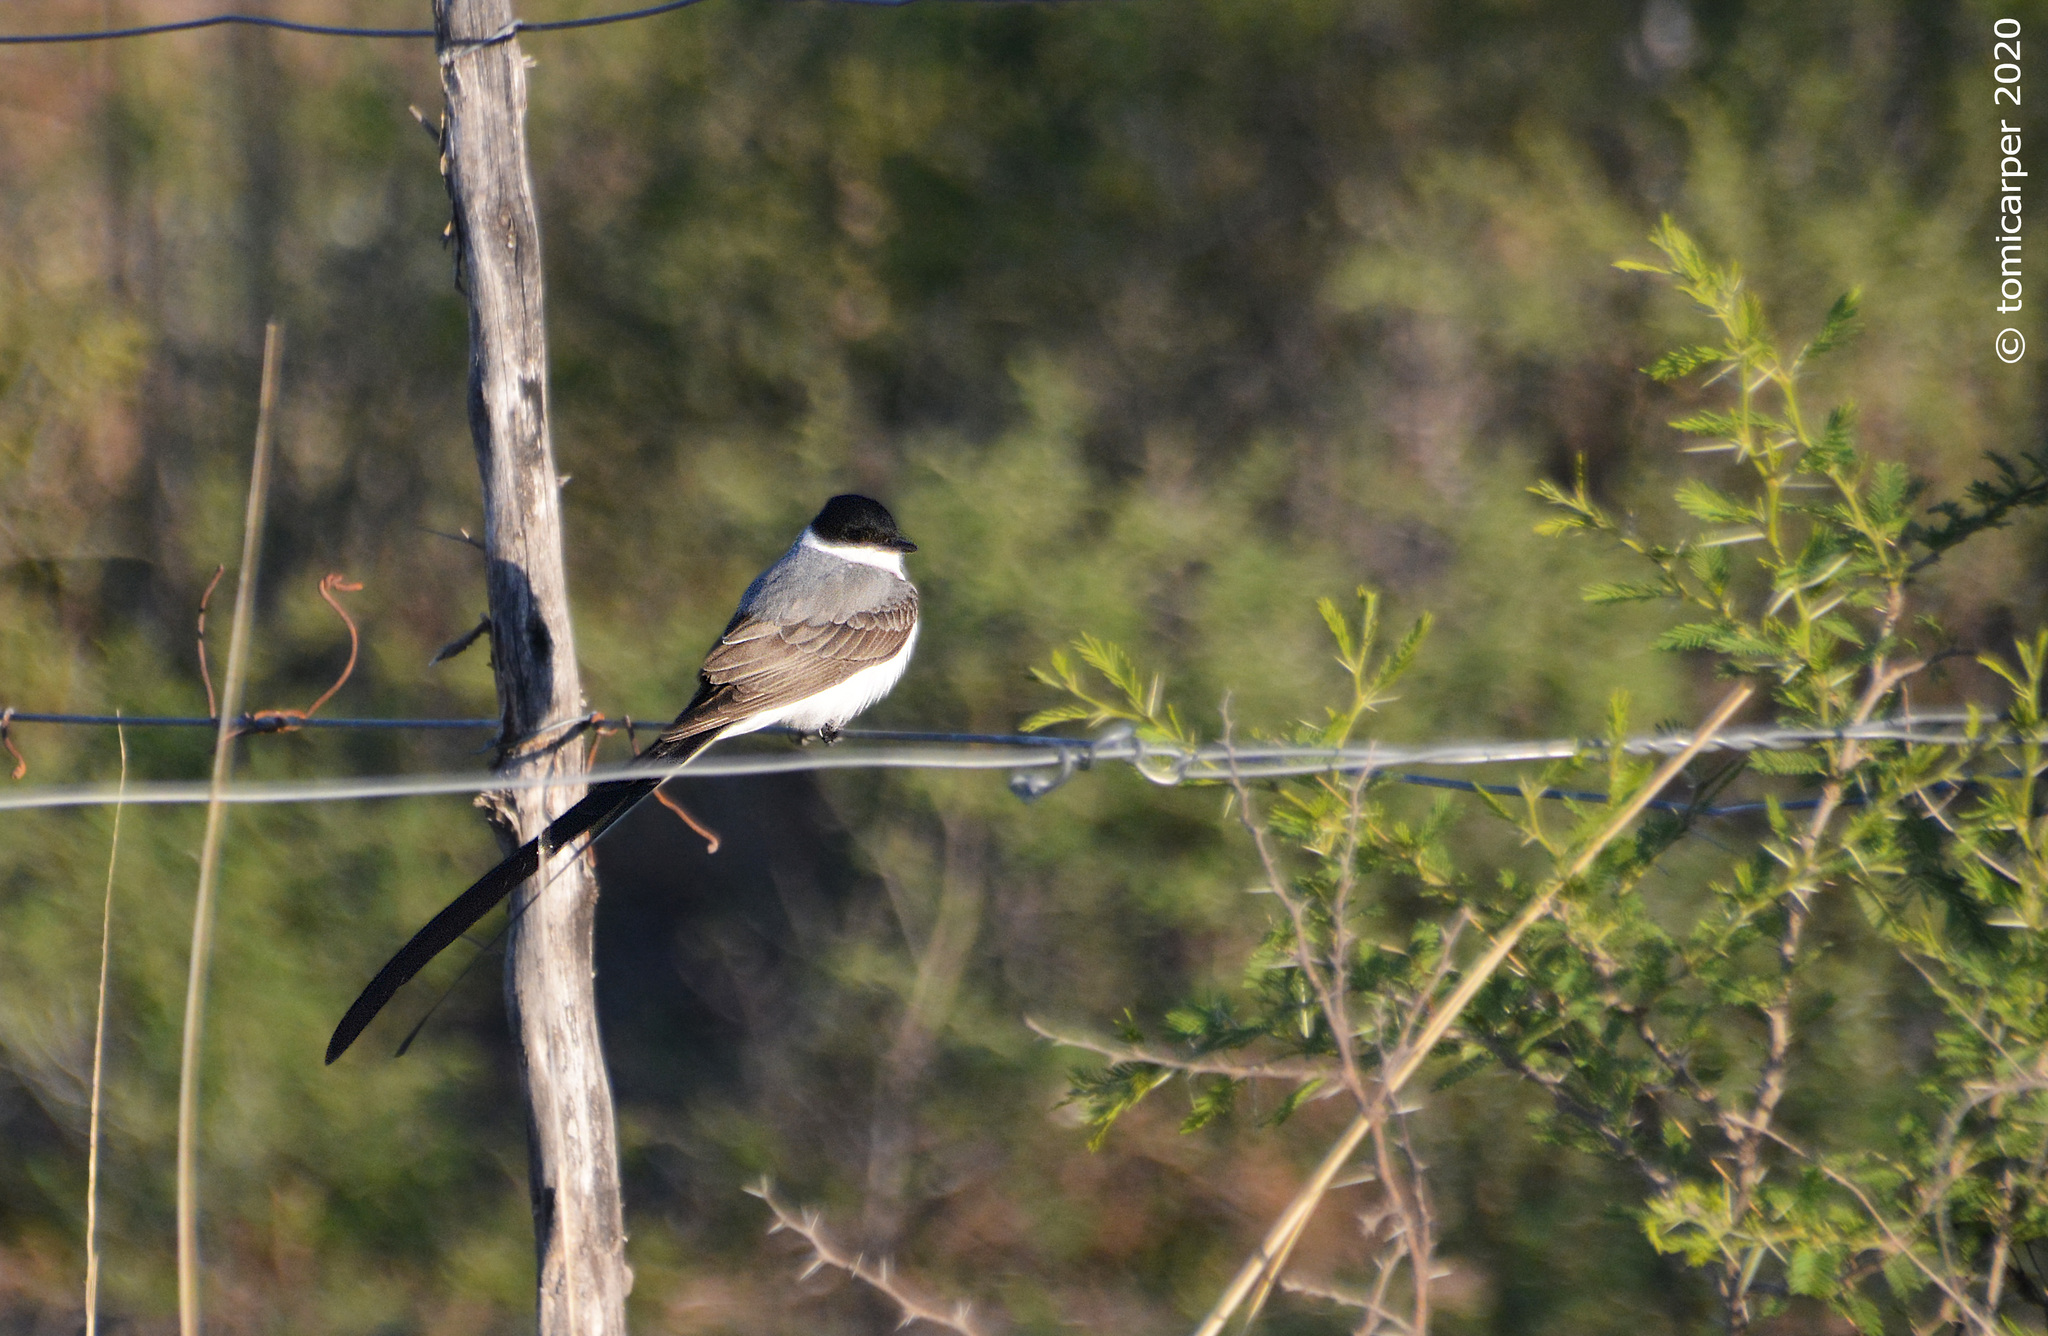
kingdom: Animalia
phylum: Chordata
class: Aves
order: Passeriformes
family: Tyrannidae
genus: Tyrannus
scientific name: Tyrannus savana
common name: Fork-tailed flycatcher
